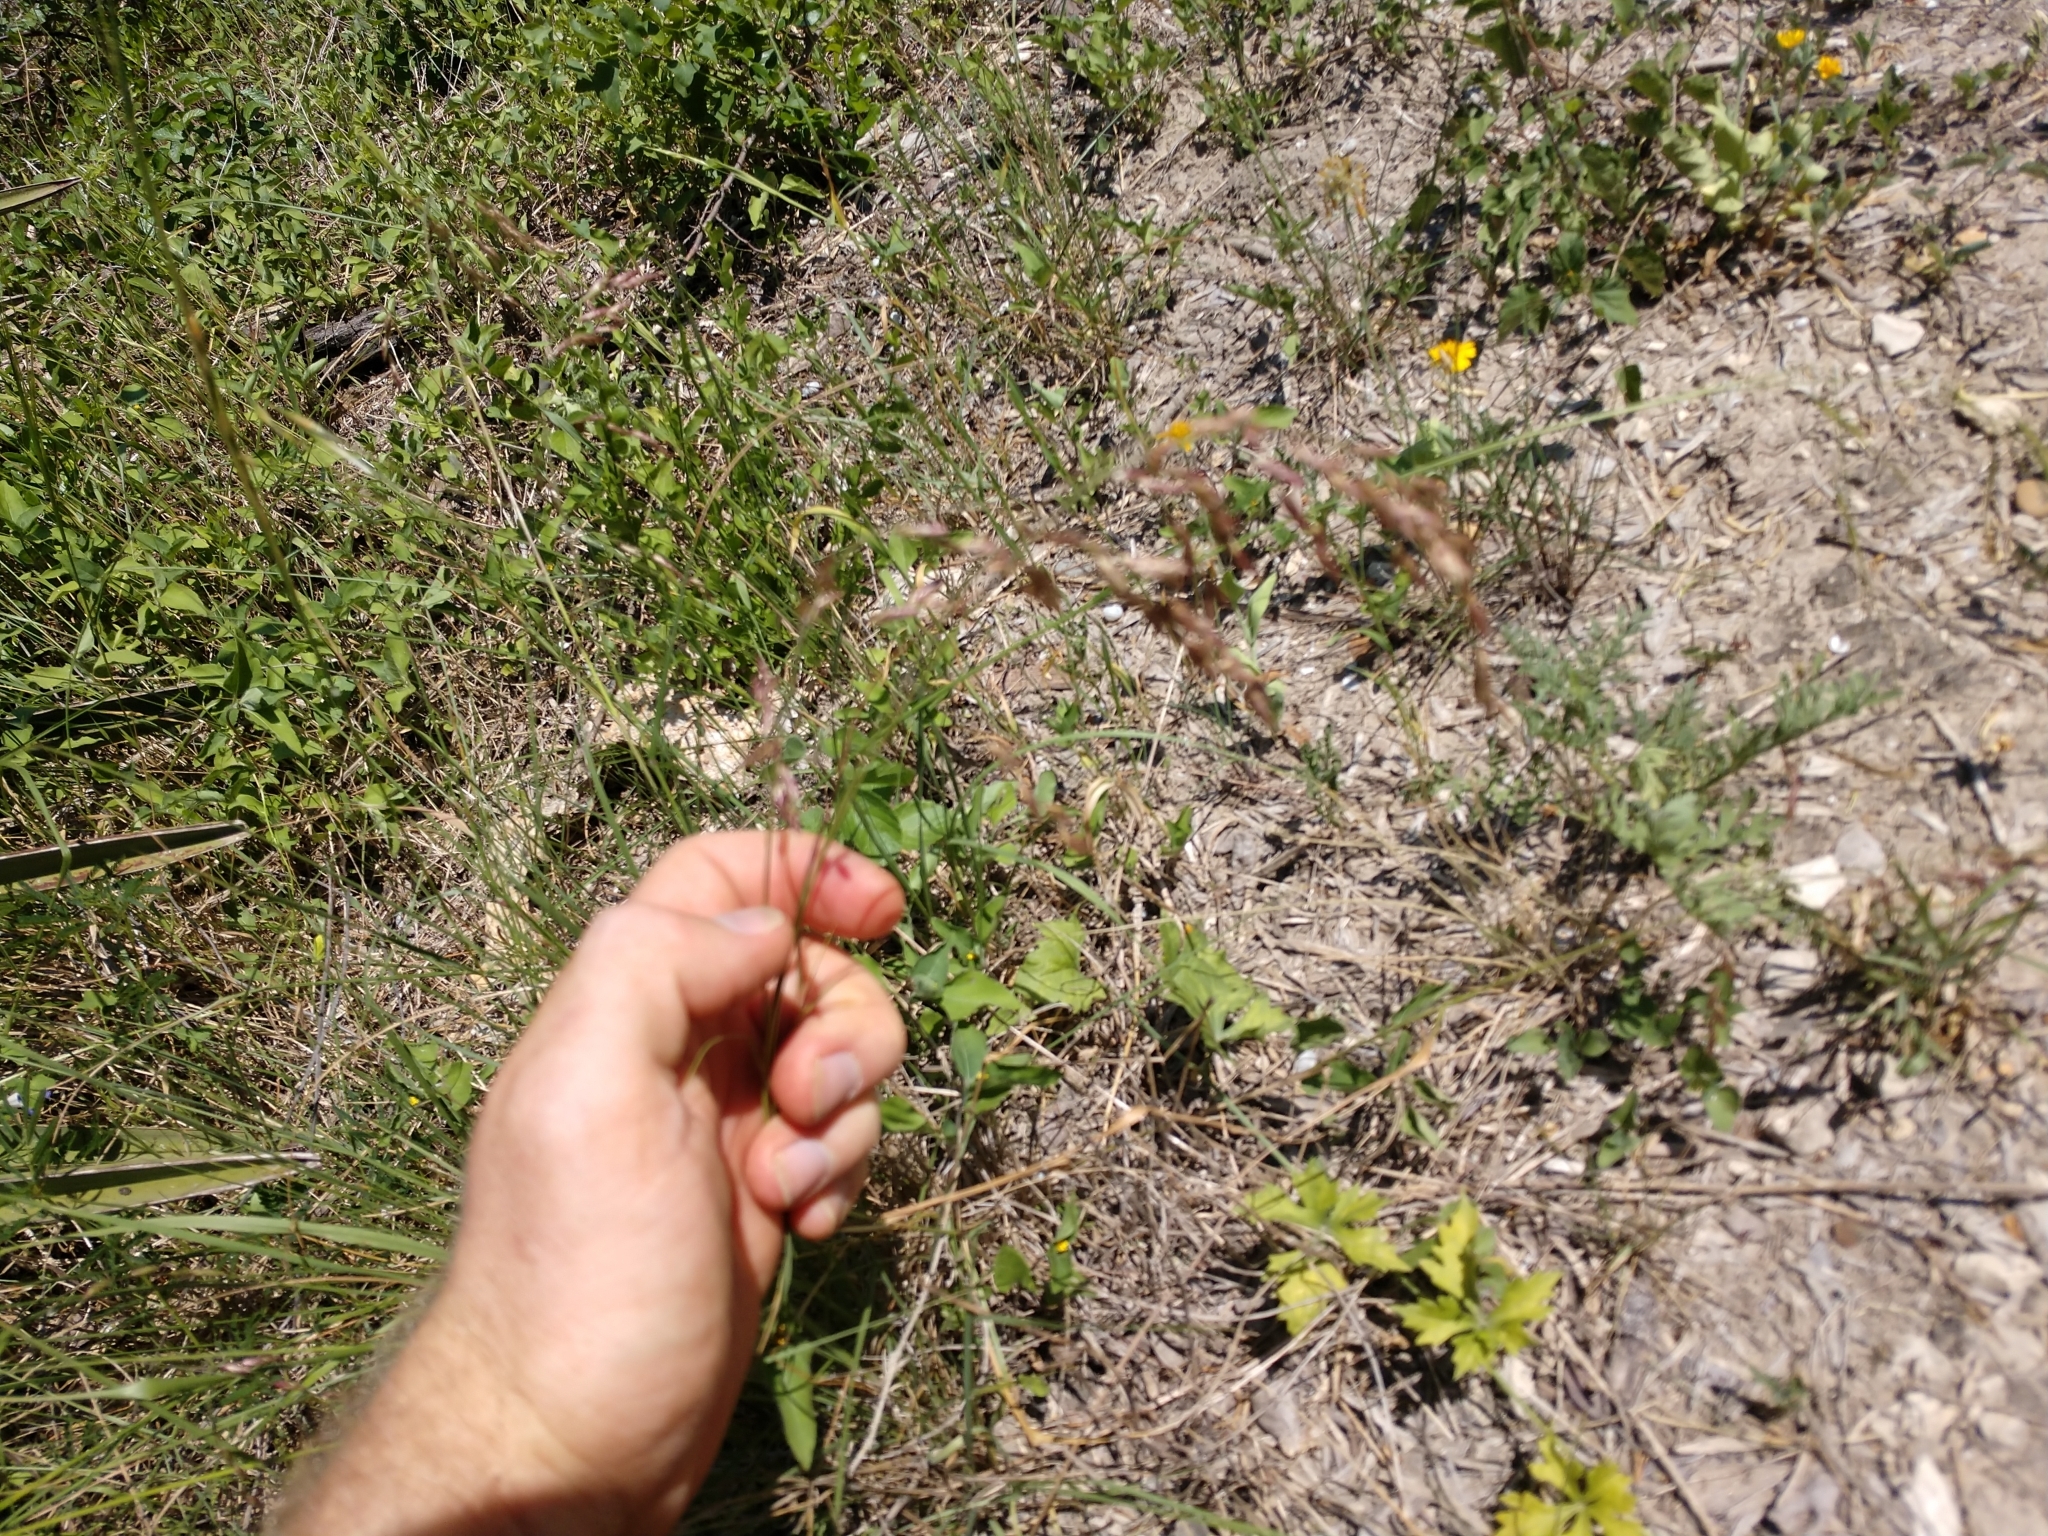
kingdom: Plantae
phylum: Tracheophyta
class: Liliopsida
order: Poales
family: Poaceae
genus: Tridens
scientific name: Tridens texanus
